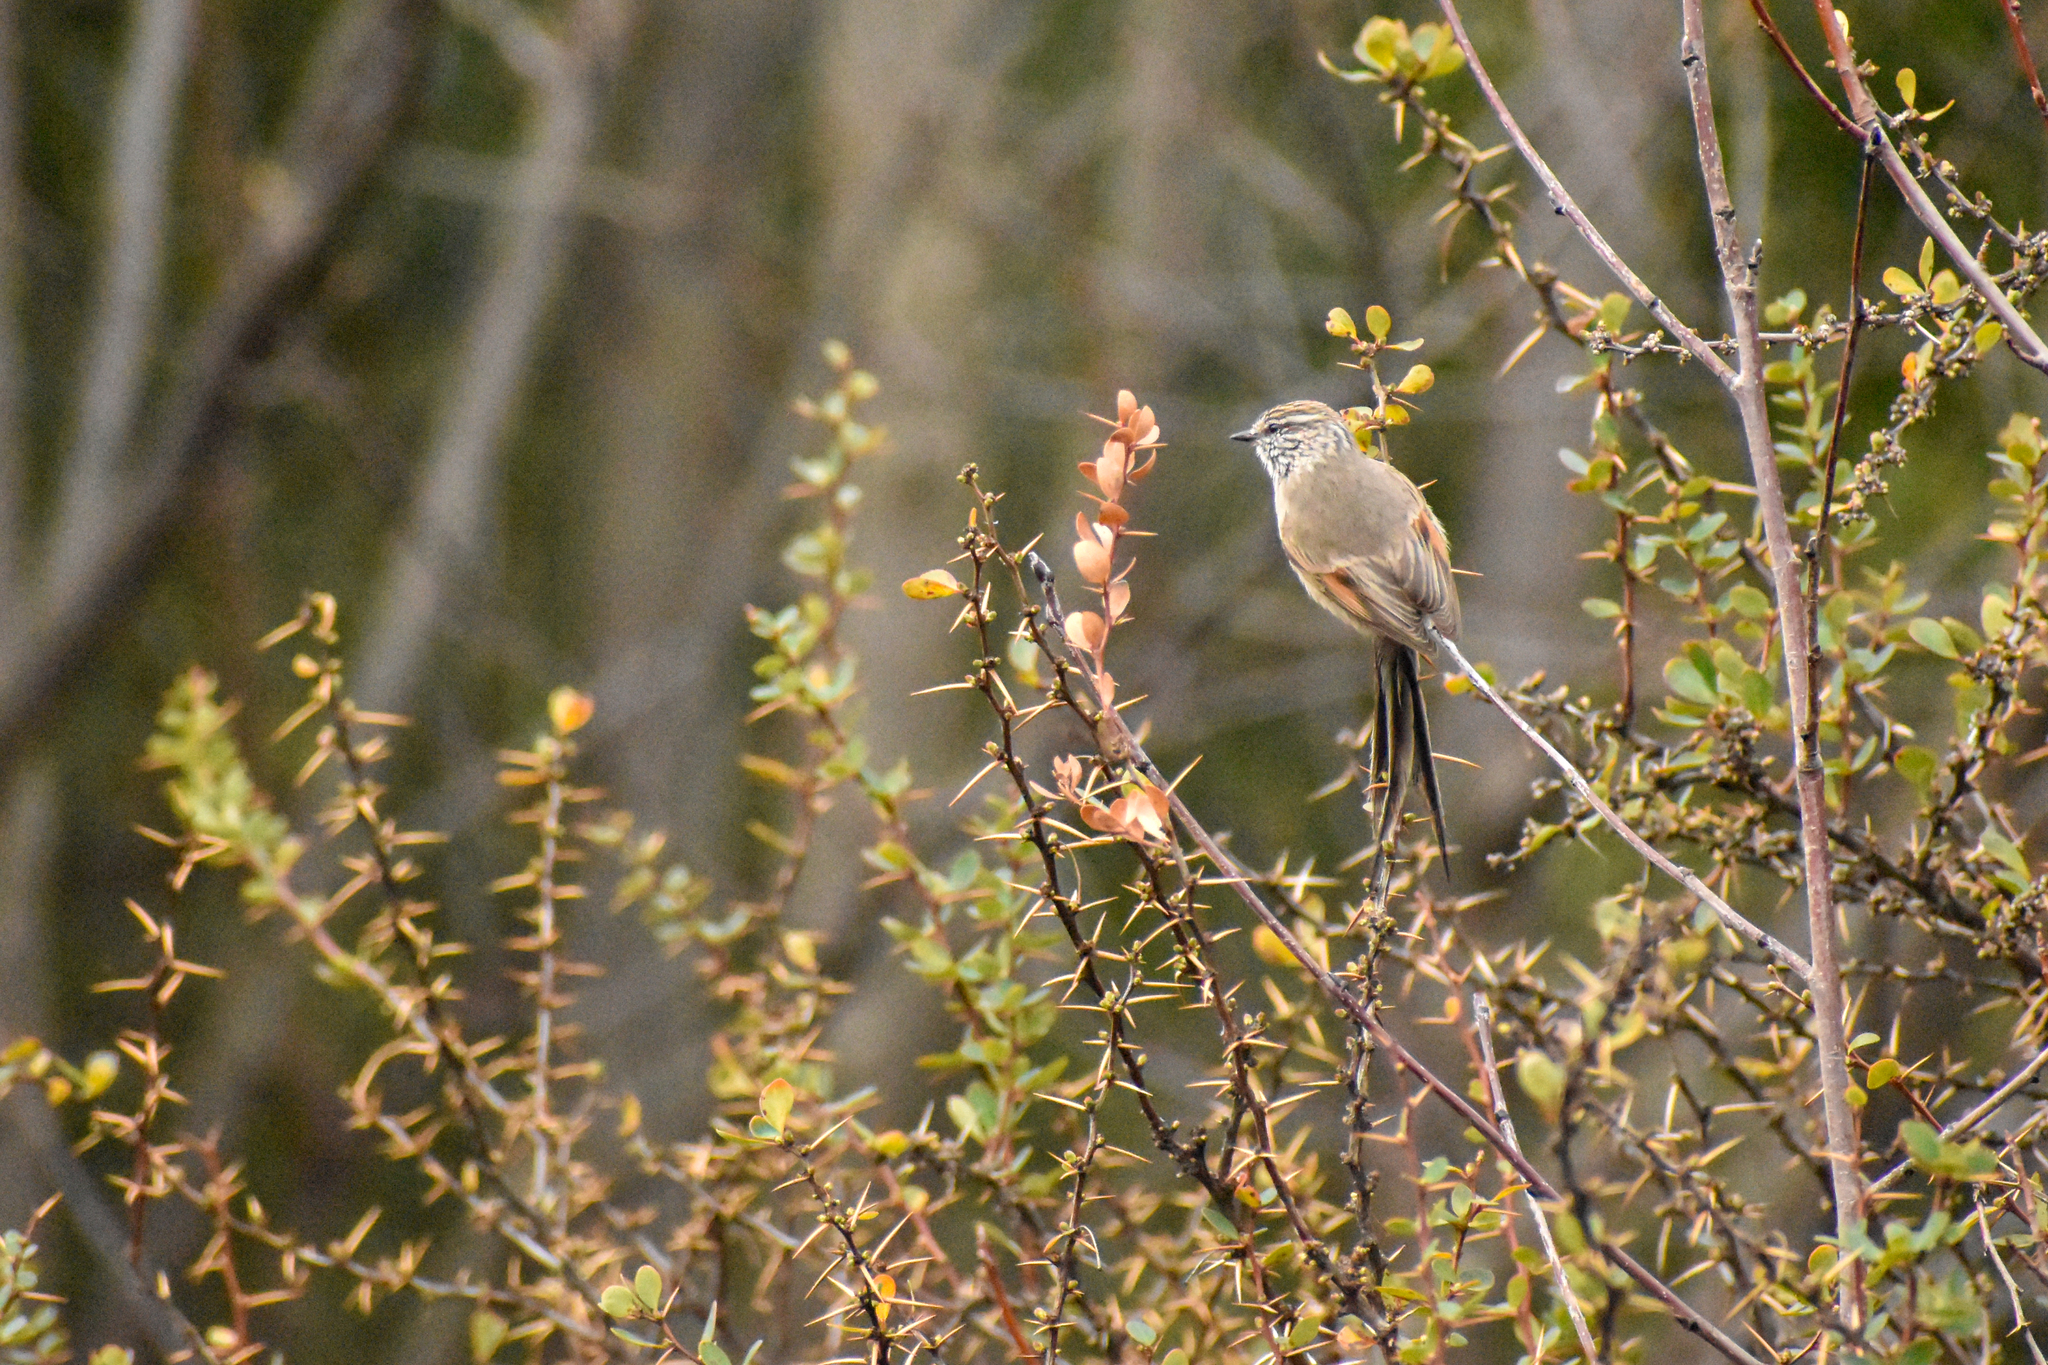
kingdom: Animalia
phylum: Chordata
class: Aves
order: Passeriformes
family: Furnariidae
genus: Leptasthenura
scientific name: Leptasthenura aegithaloides
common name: Plain-mantled tit-spinetail
